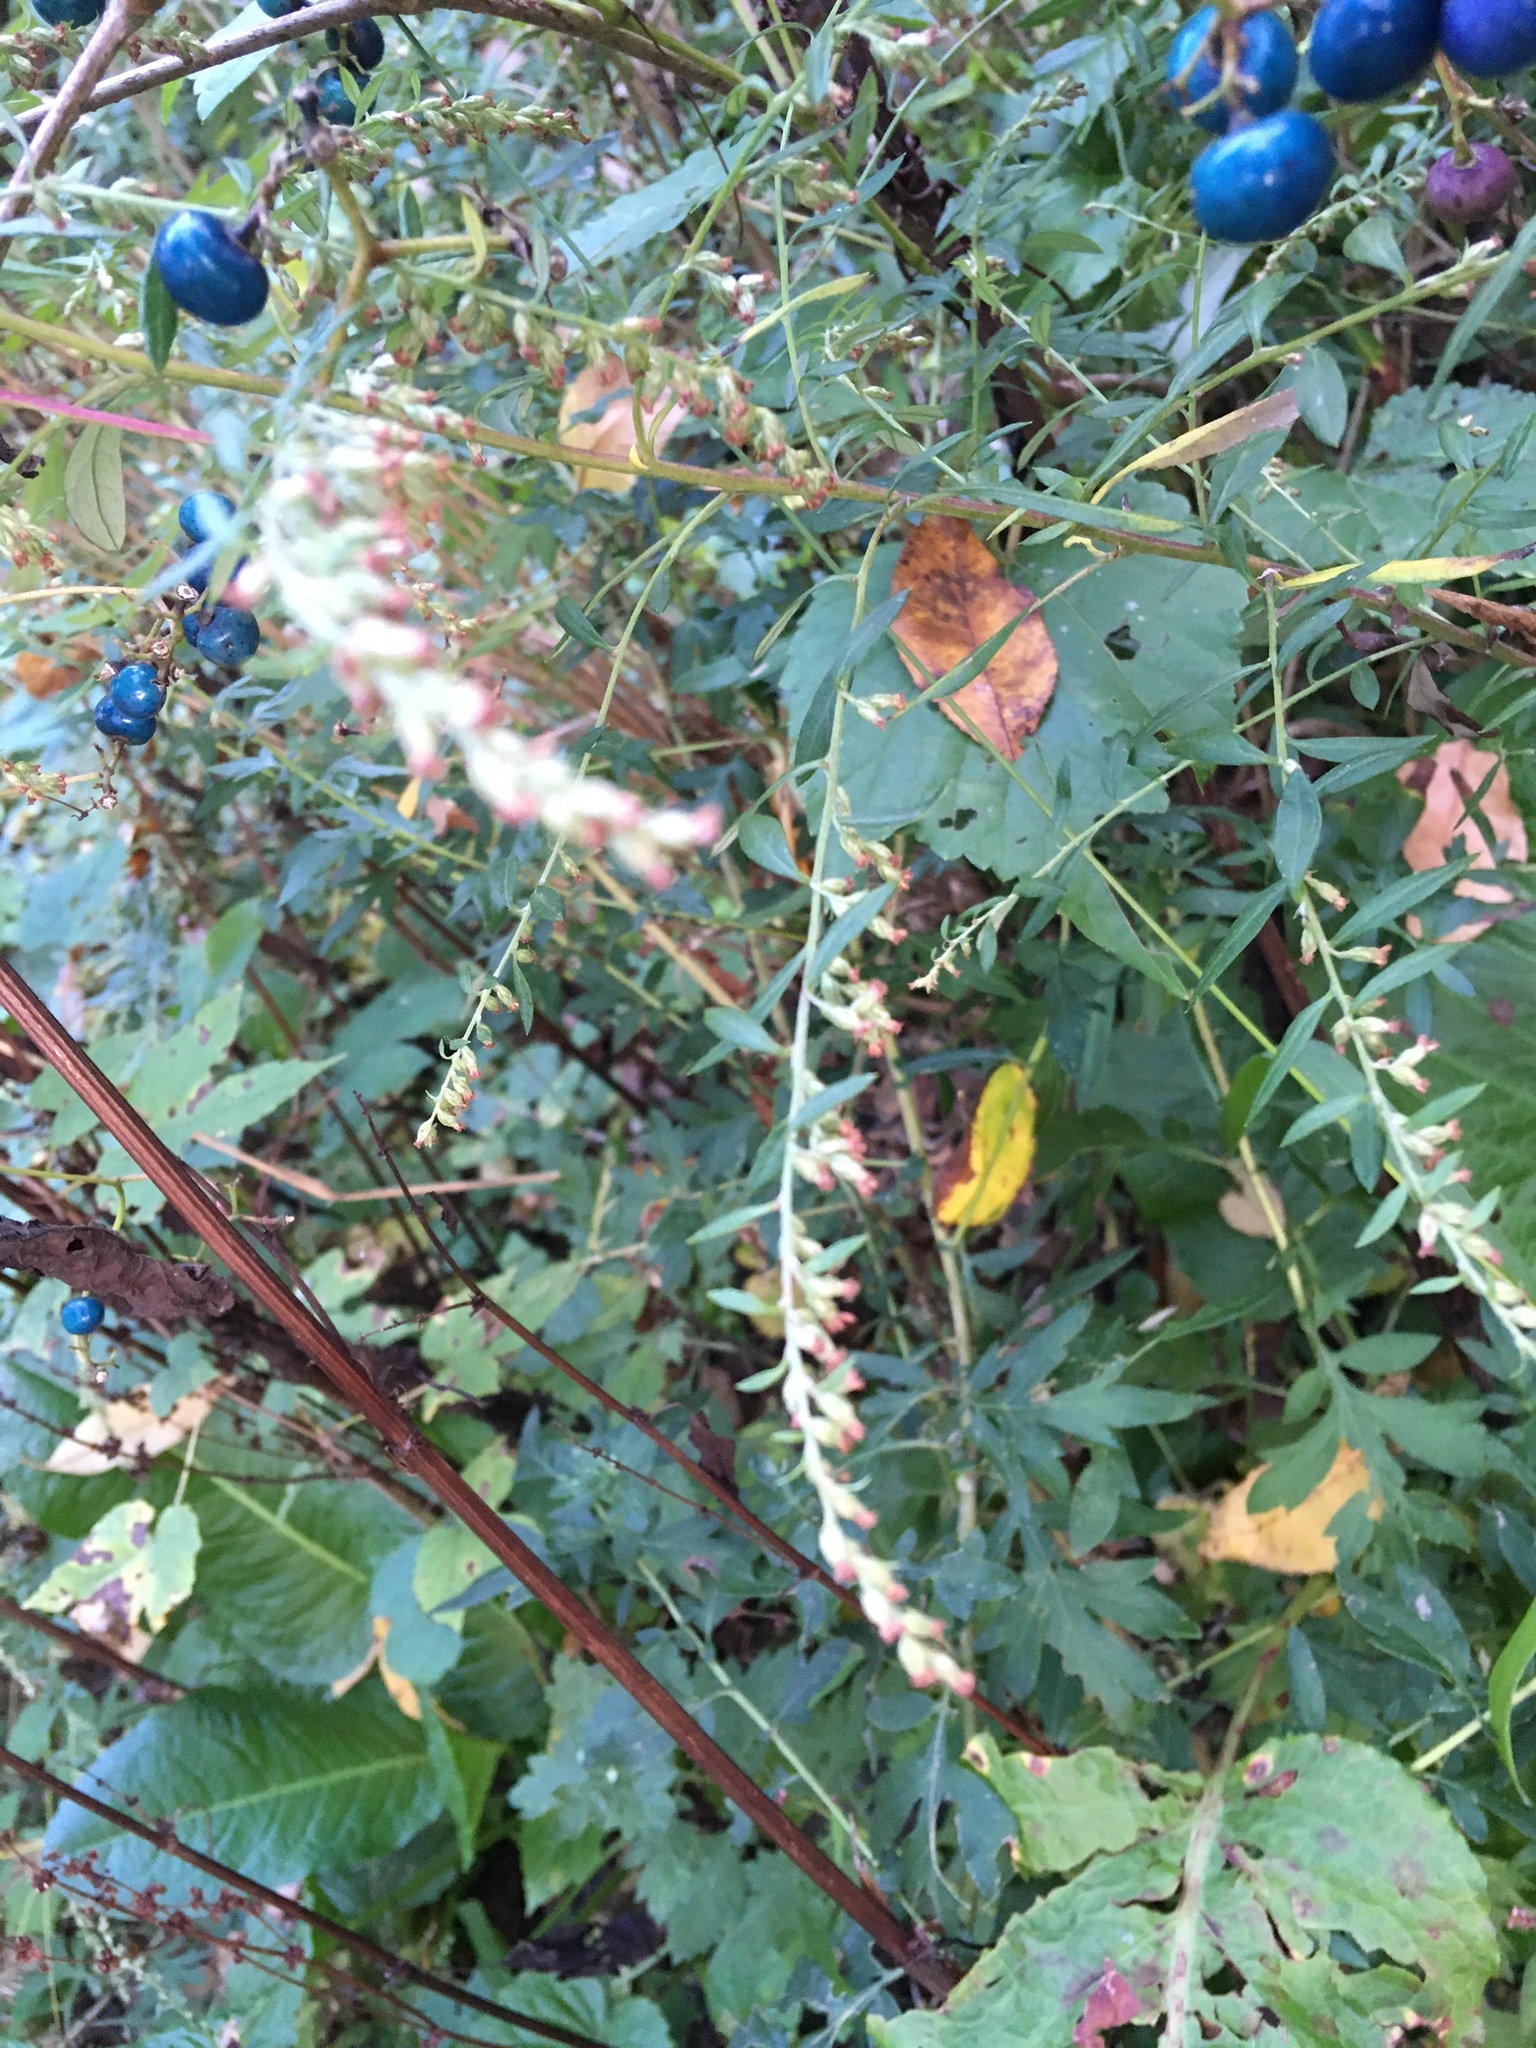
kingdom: Plantae
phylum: Tracheophyta
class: Magnoliopsida
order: Asterales
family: Asteraceae
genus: Artemisia
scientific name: Artemisia vulgaris
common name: Mugwort
